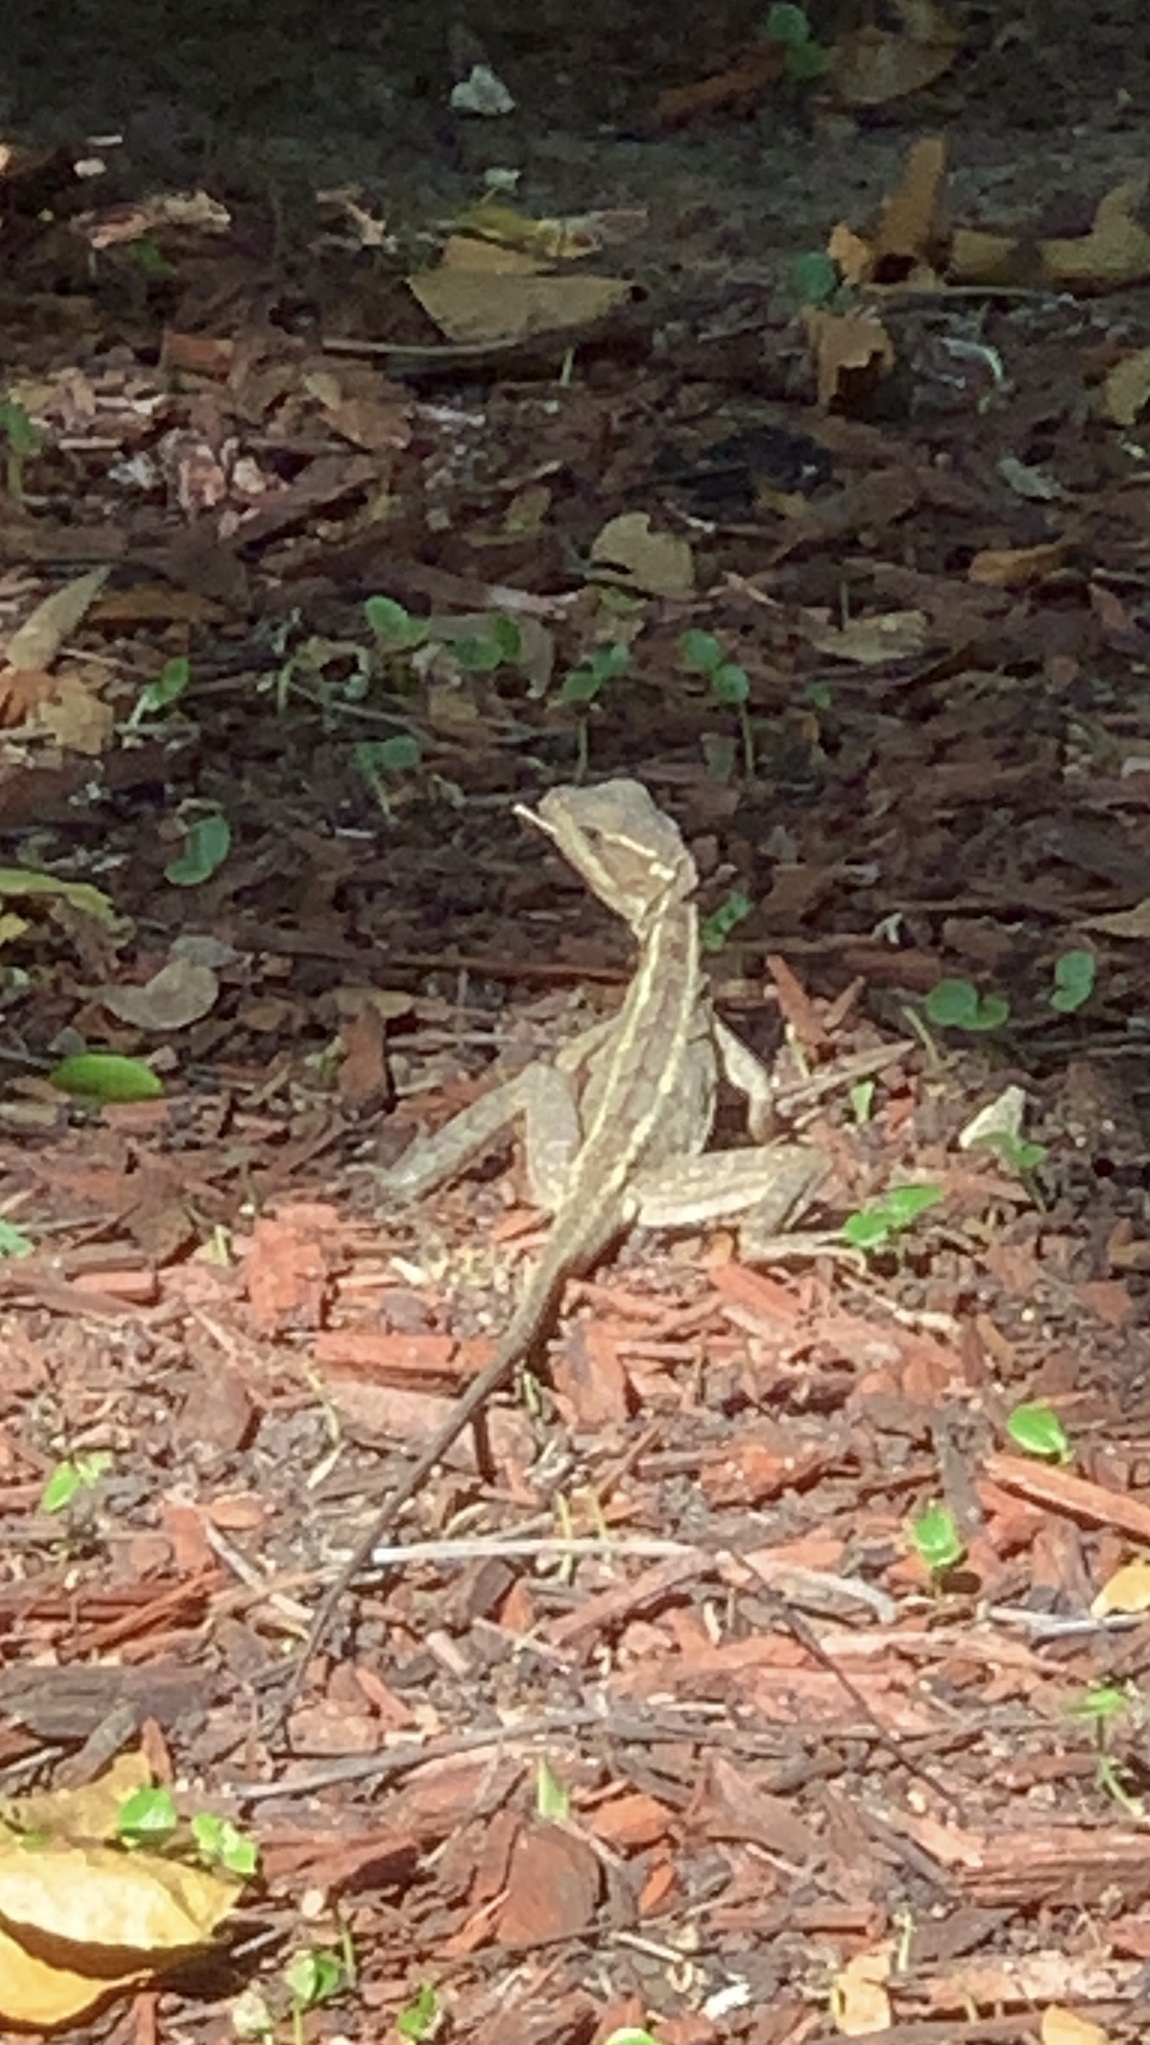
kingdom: Animalia
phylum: Chordata
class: Squamata
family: Corytophanidae
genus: Basiliscus
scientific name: Basiliscus vittatus
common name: Brown basilisk
